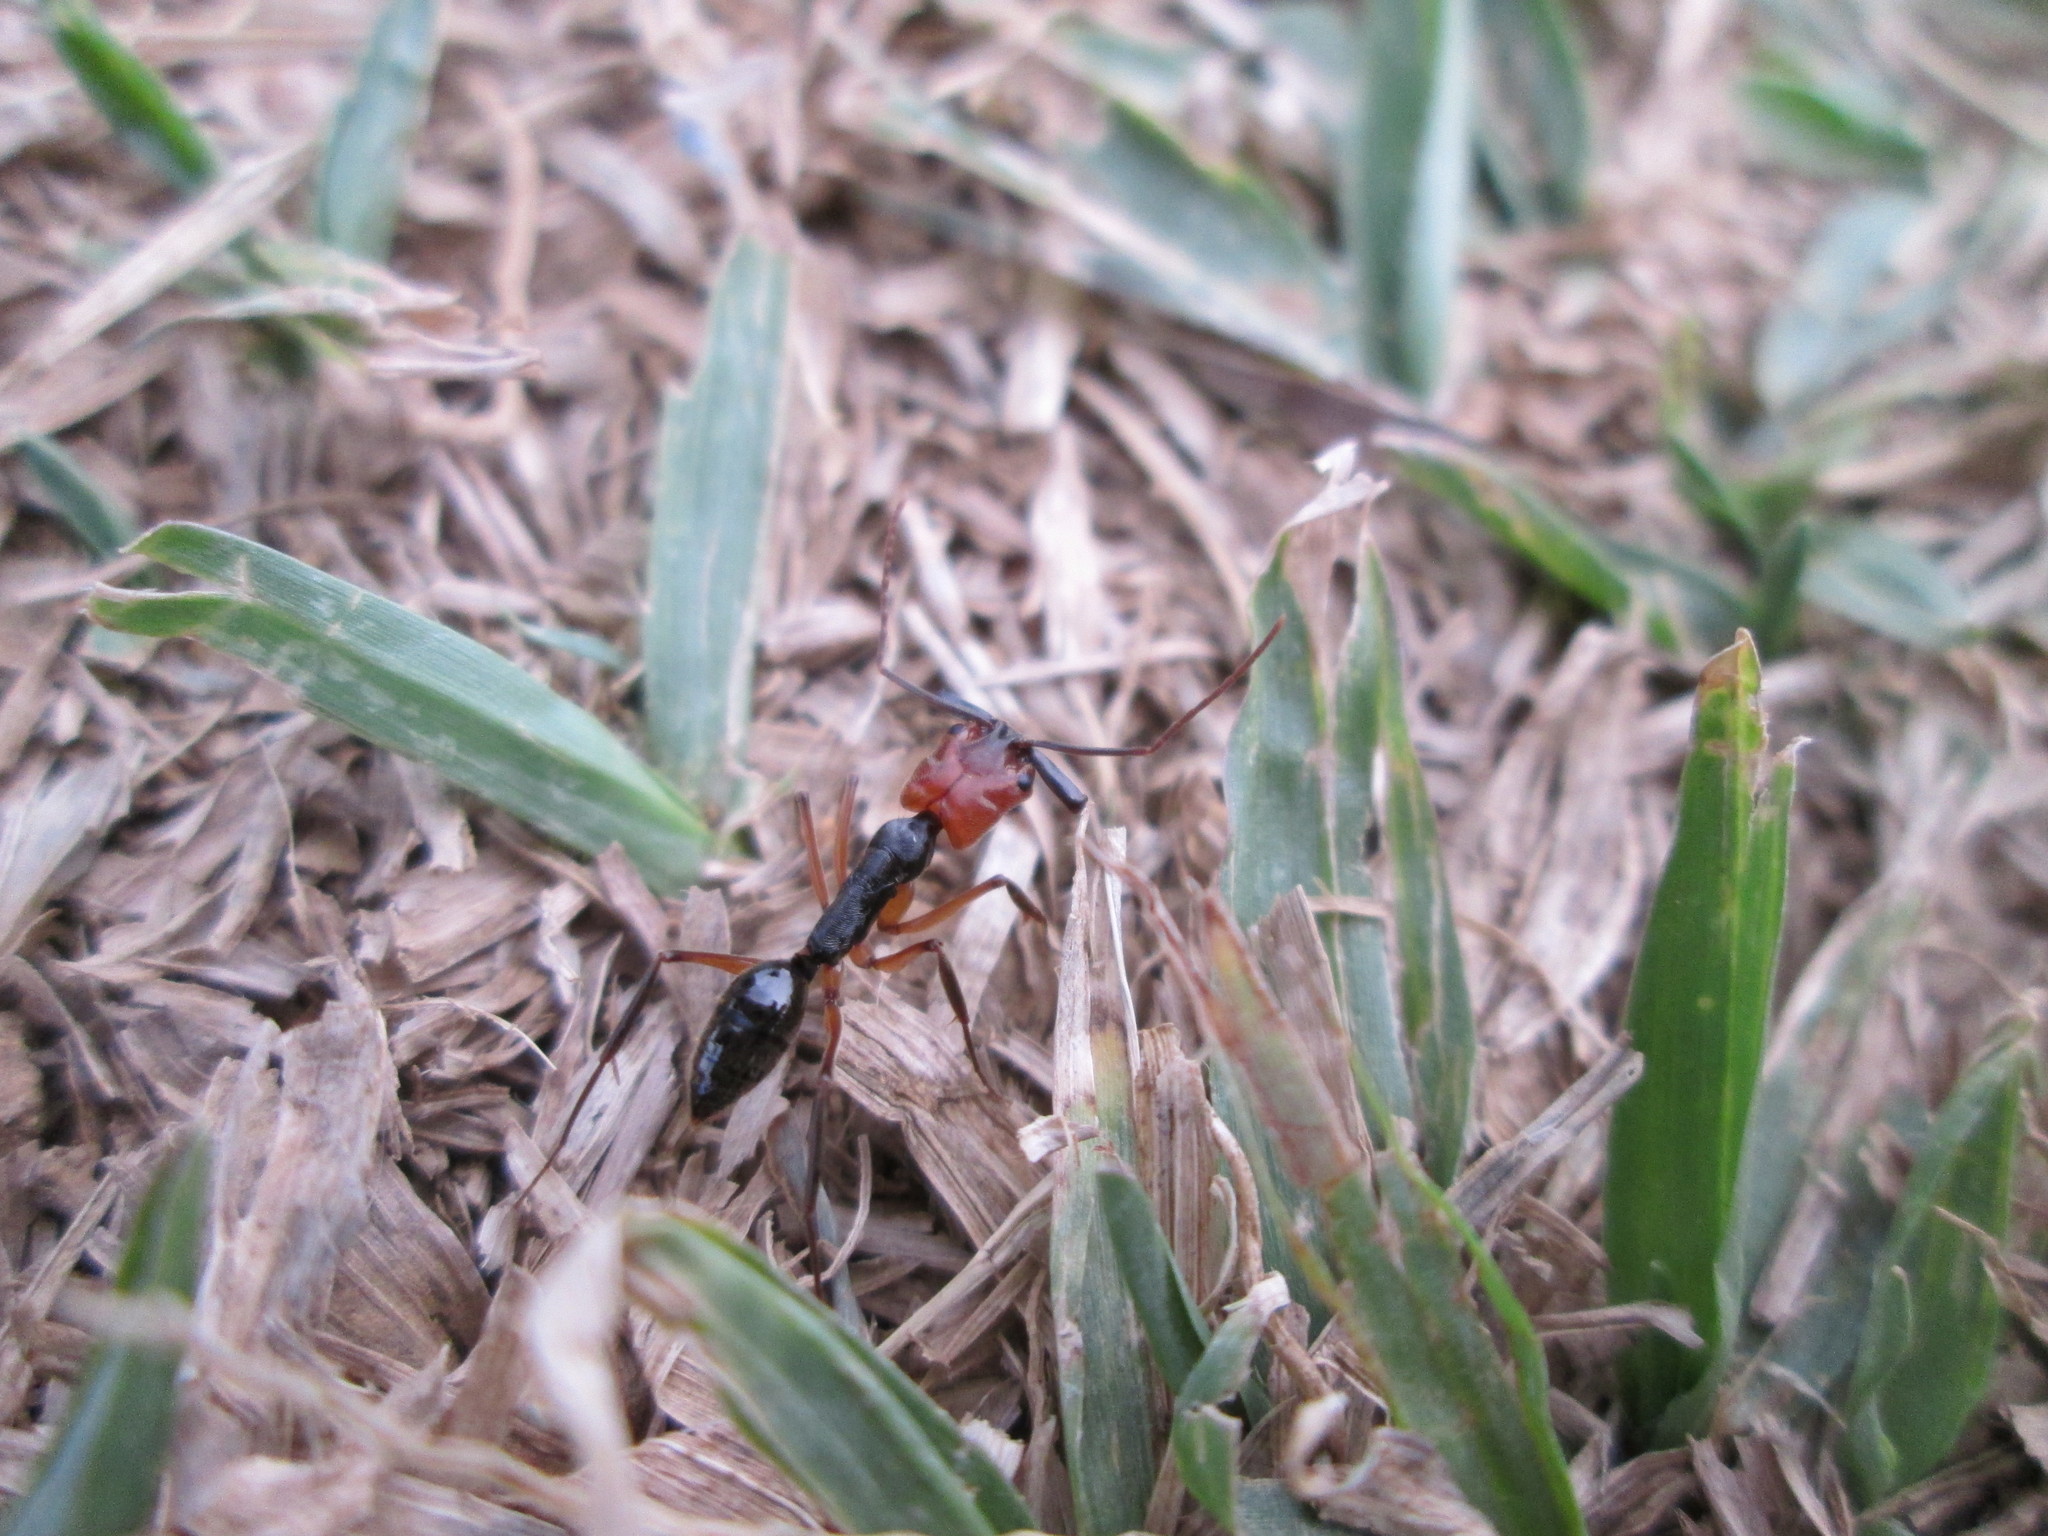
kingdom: Animalia
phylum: Arthropoda
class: Insecta
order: Hymenoptera
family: Formicidae
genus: Odontomachus
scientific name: Odontomachus erythrocephalus
